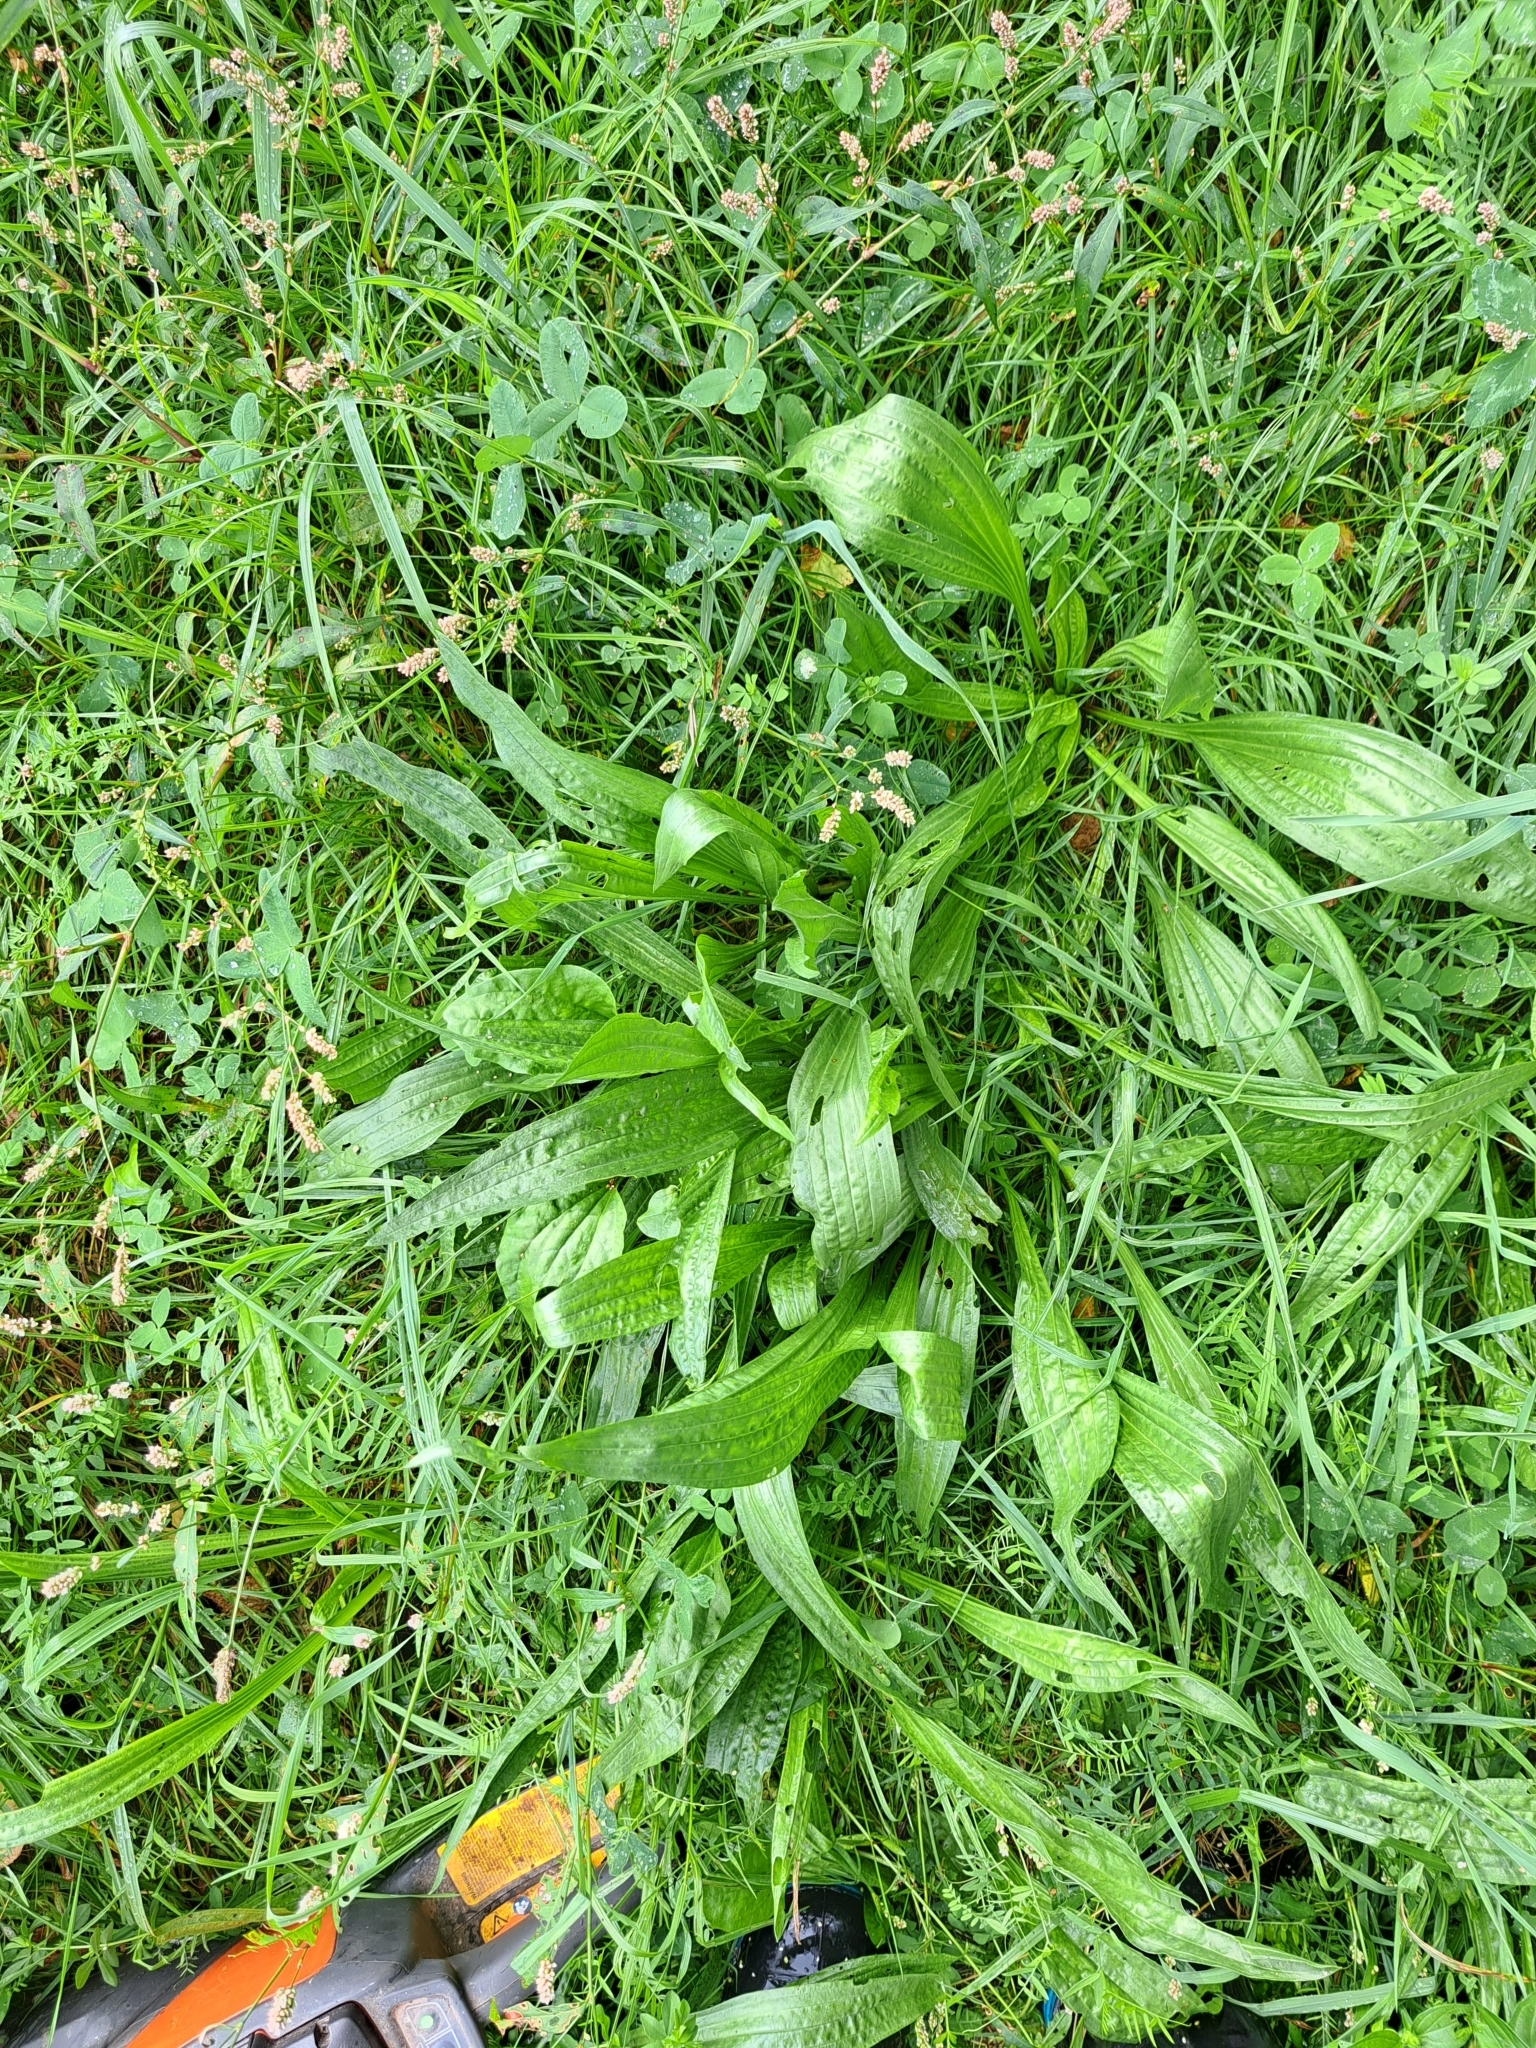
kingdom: Plantae
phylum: Tracheophyta
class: Magnoliopsida
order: Lamiales
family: Plantaginaceae
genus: Plantago
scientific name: Plantago lanceolata
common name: Ribwort plantain
